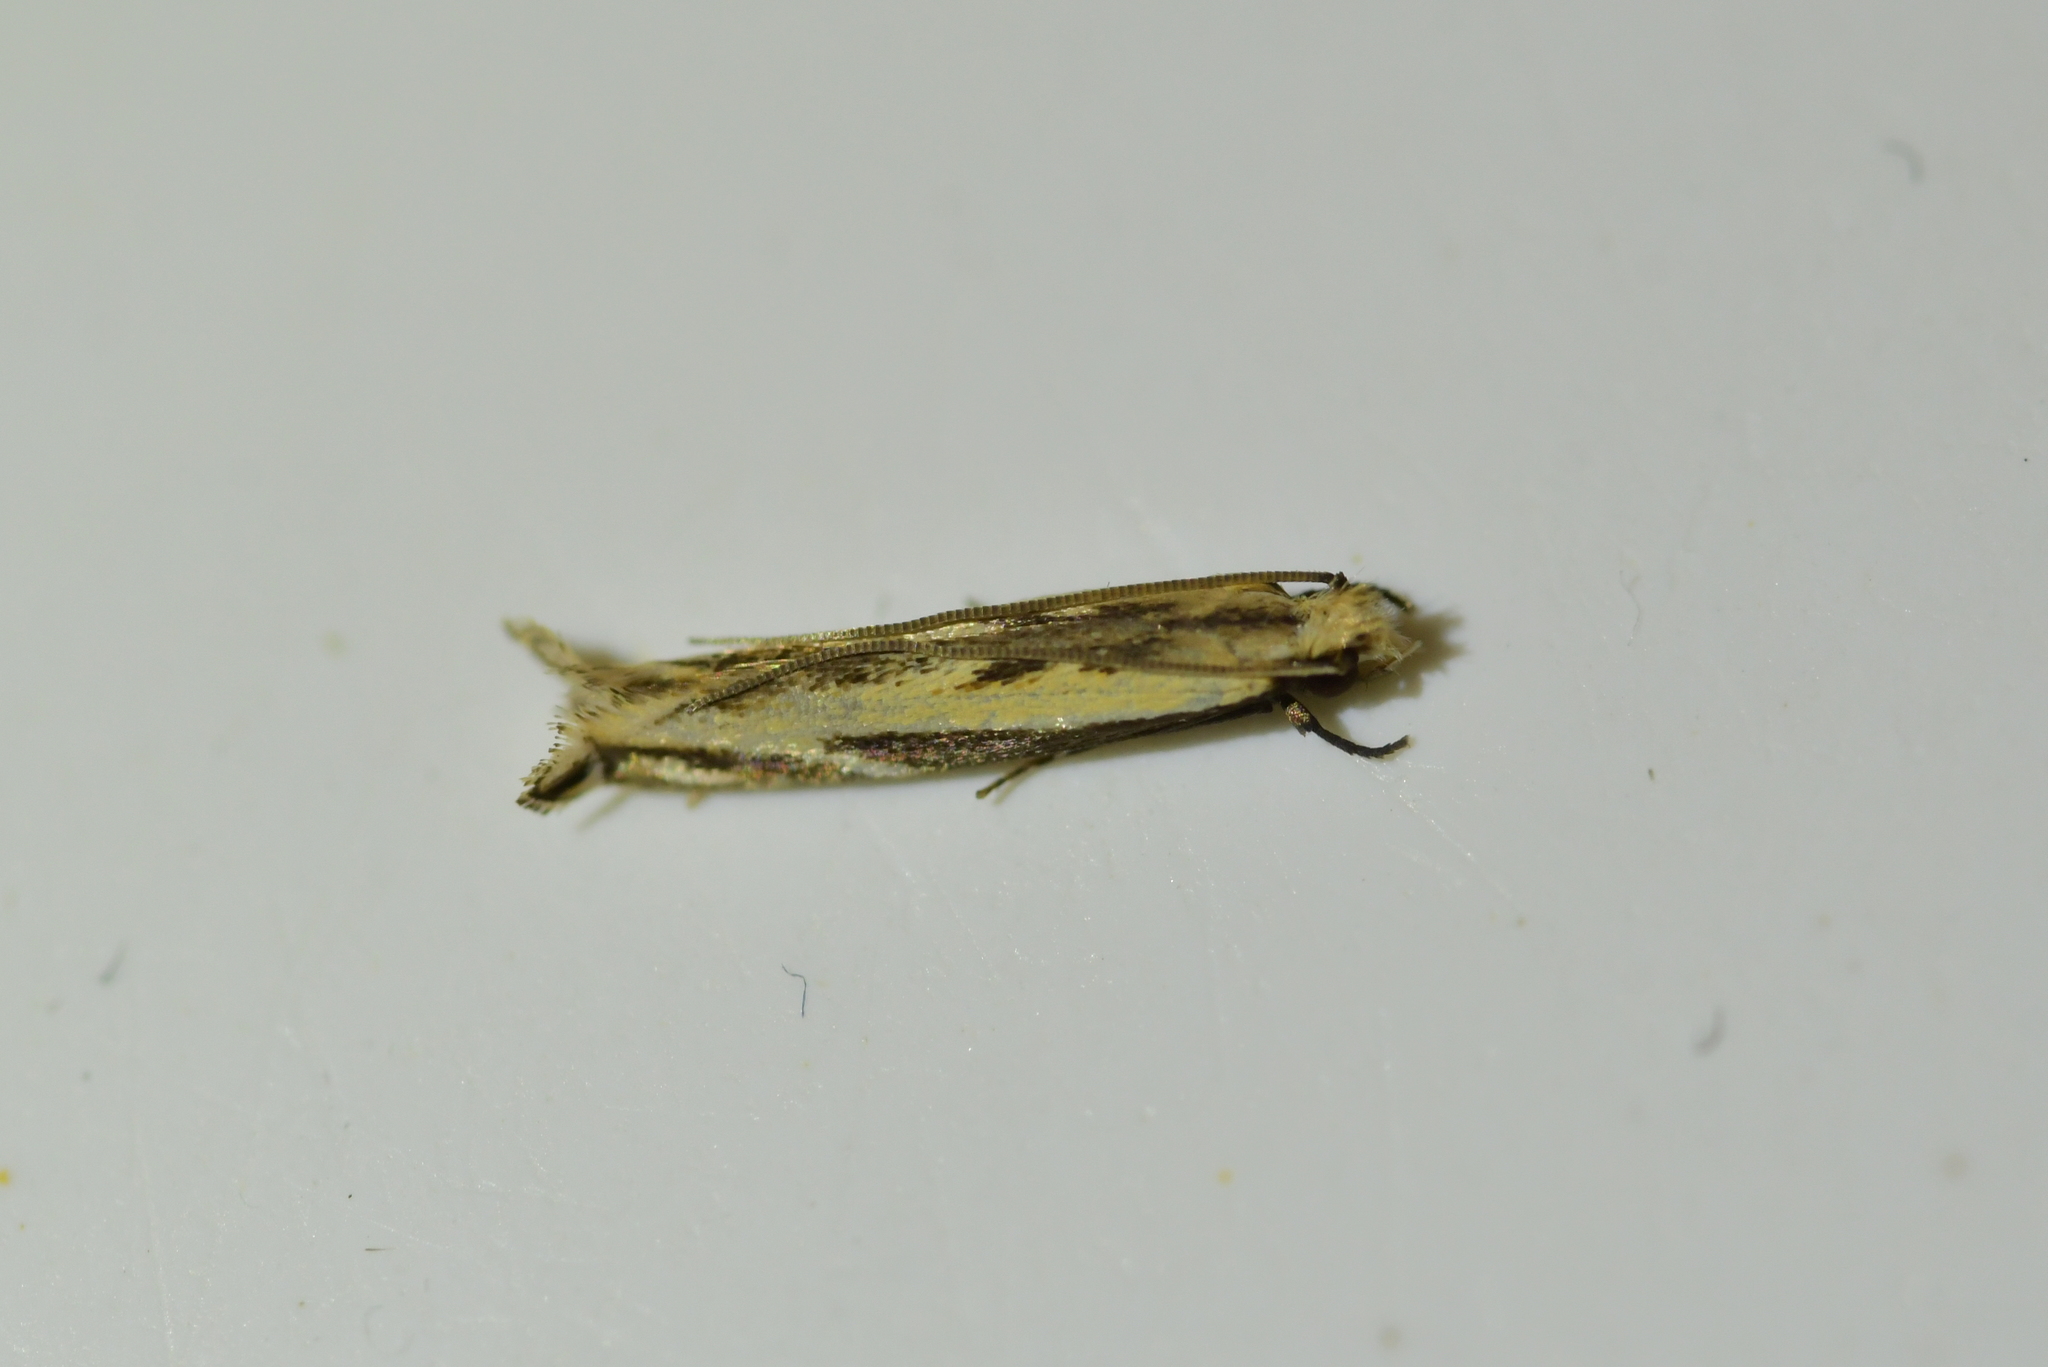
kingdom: Animalia
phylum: Arthropoda
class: Insecta
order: Lepidoptera
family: Tineidae
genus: Erechthias
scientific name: Erechthias terminella
